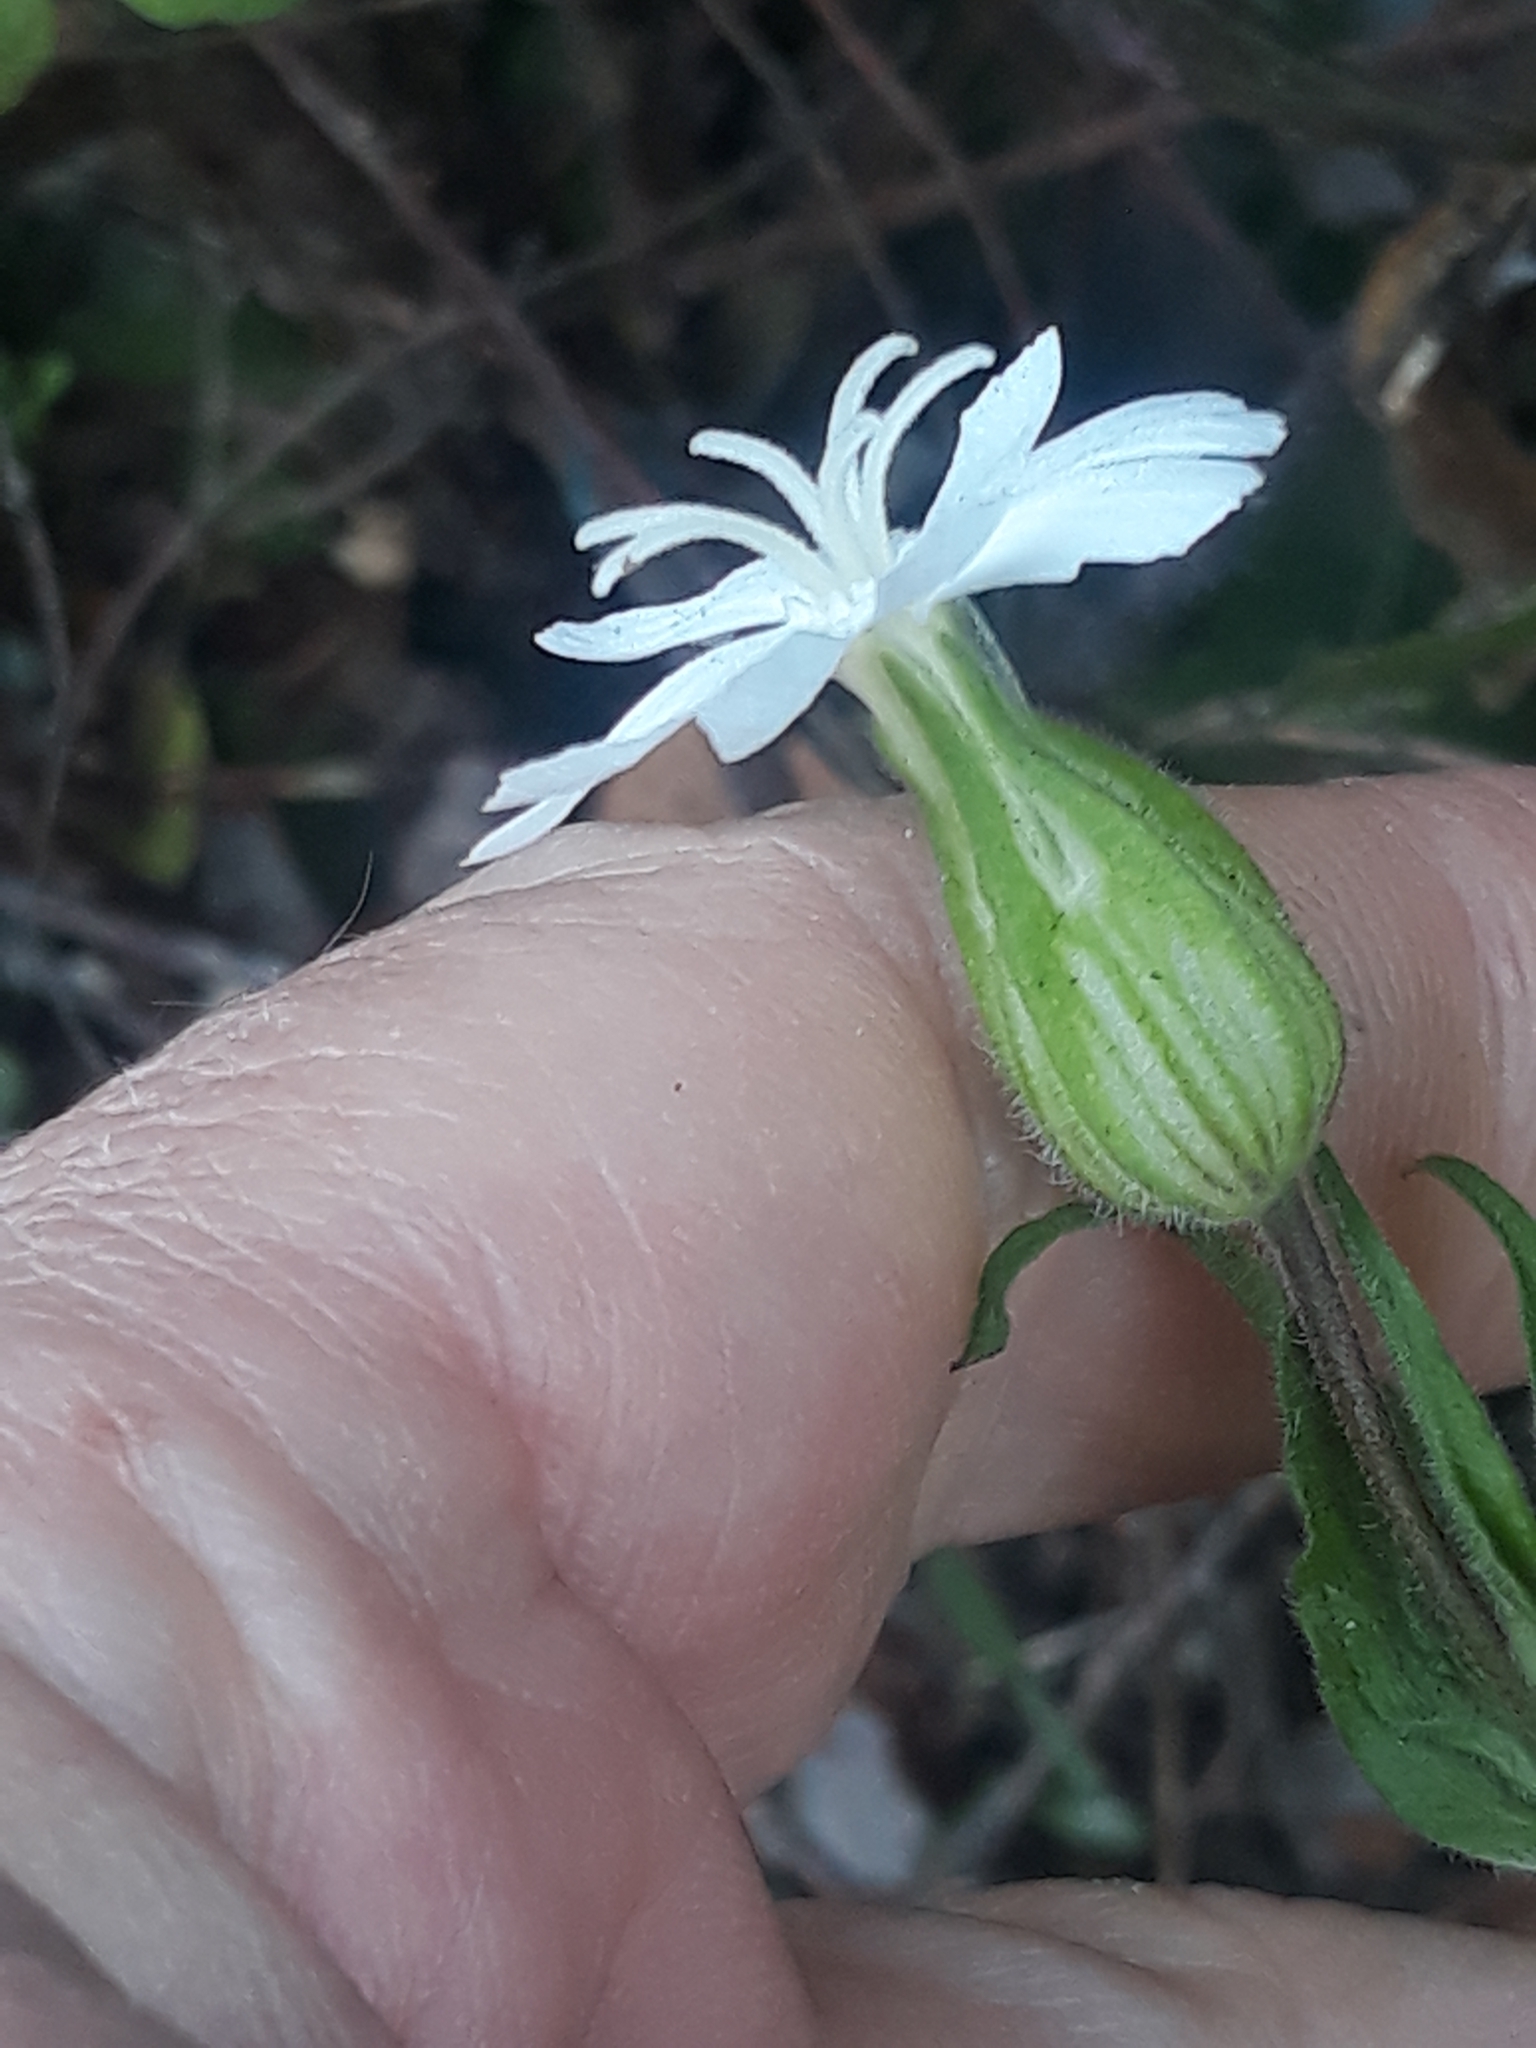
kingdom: Plantae
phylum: Tracheophyta
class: Magnoliopsida
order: Caryophyllales
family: Caryophyllaceae
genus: Silene
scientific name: Silene latifolia
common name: White campion
